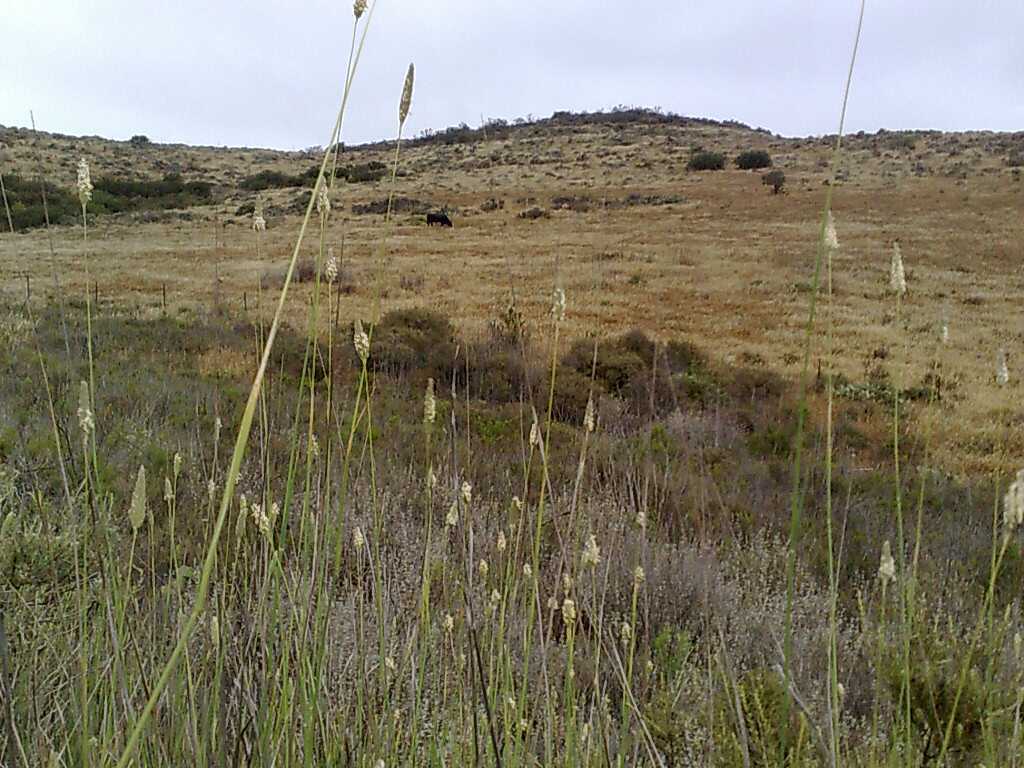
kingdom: Plantae
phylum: Tracheophyta
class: Liliopsida
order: Poales
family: Poaceae
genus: Phalaris
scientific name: Phalaris aquatica
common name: Bulbous canary-grass
